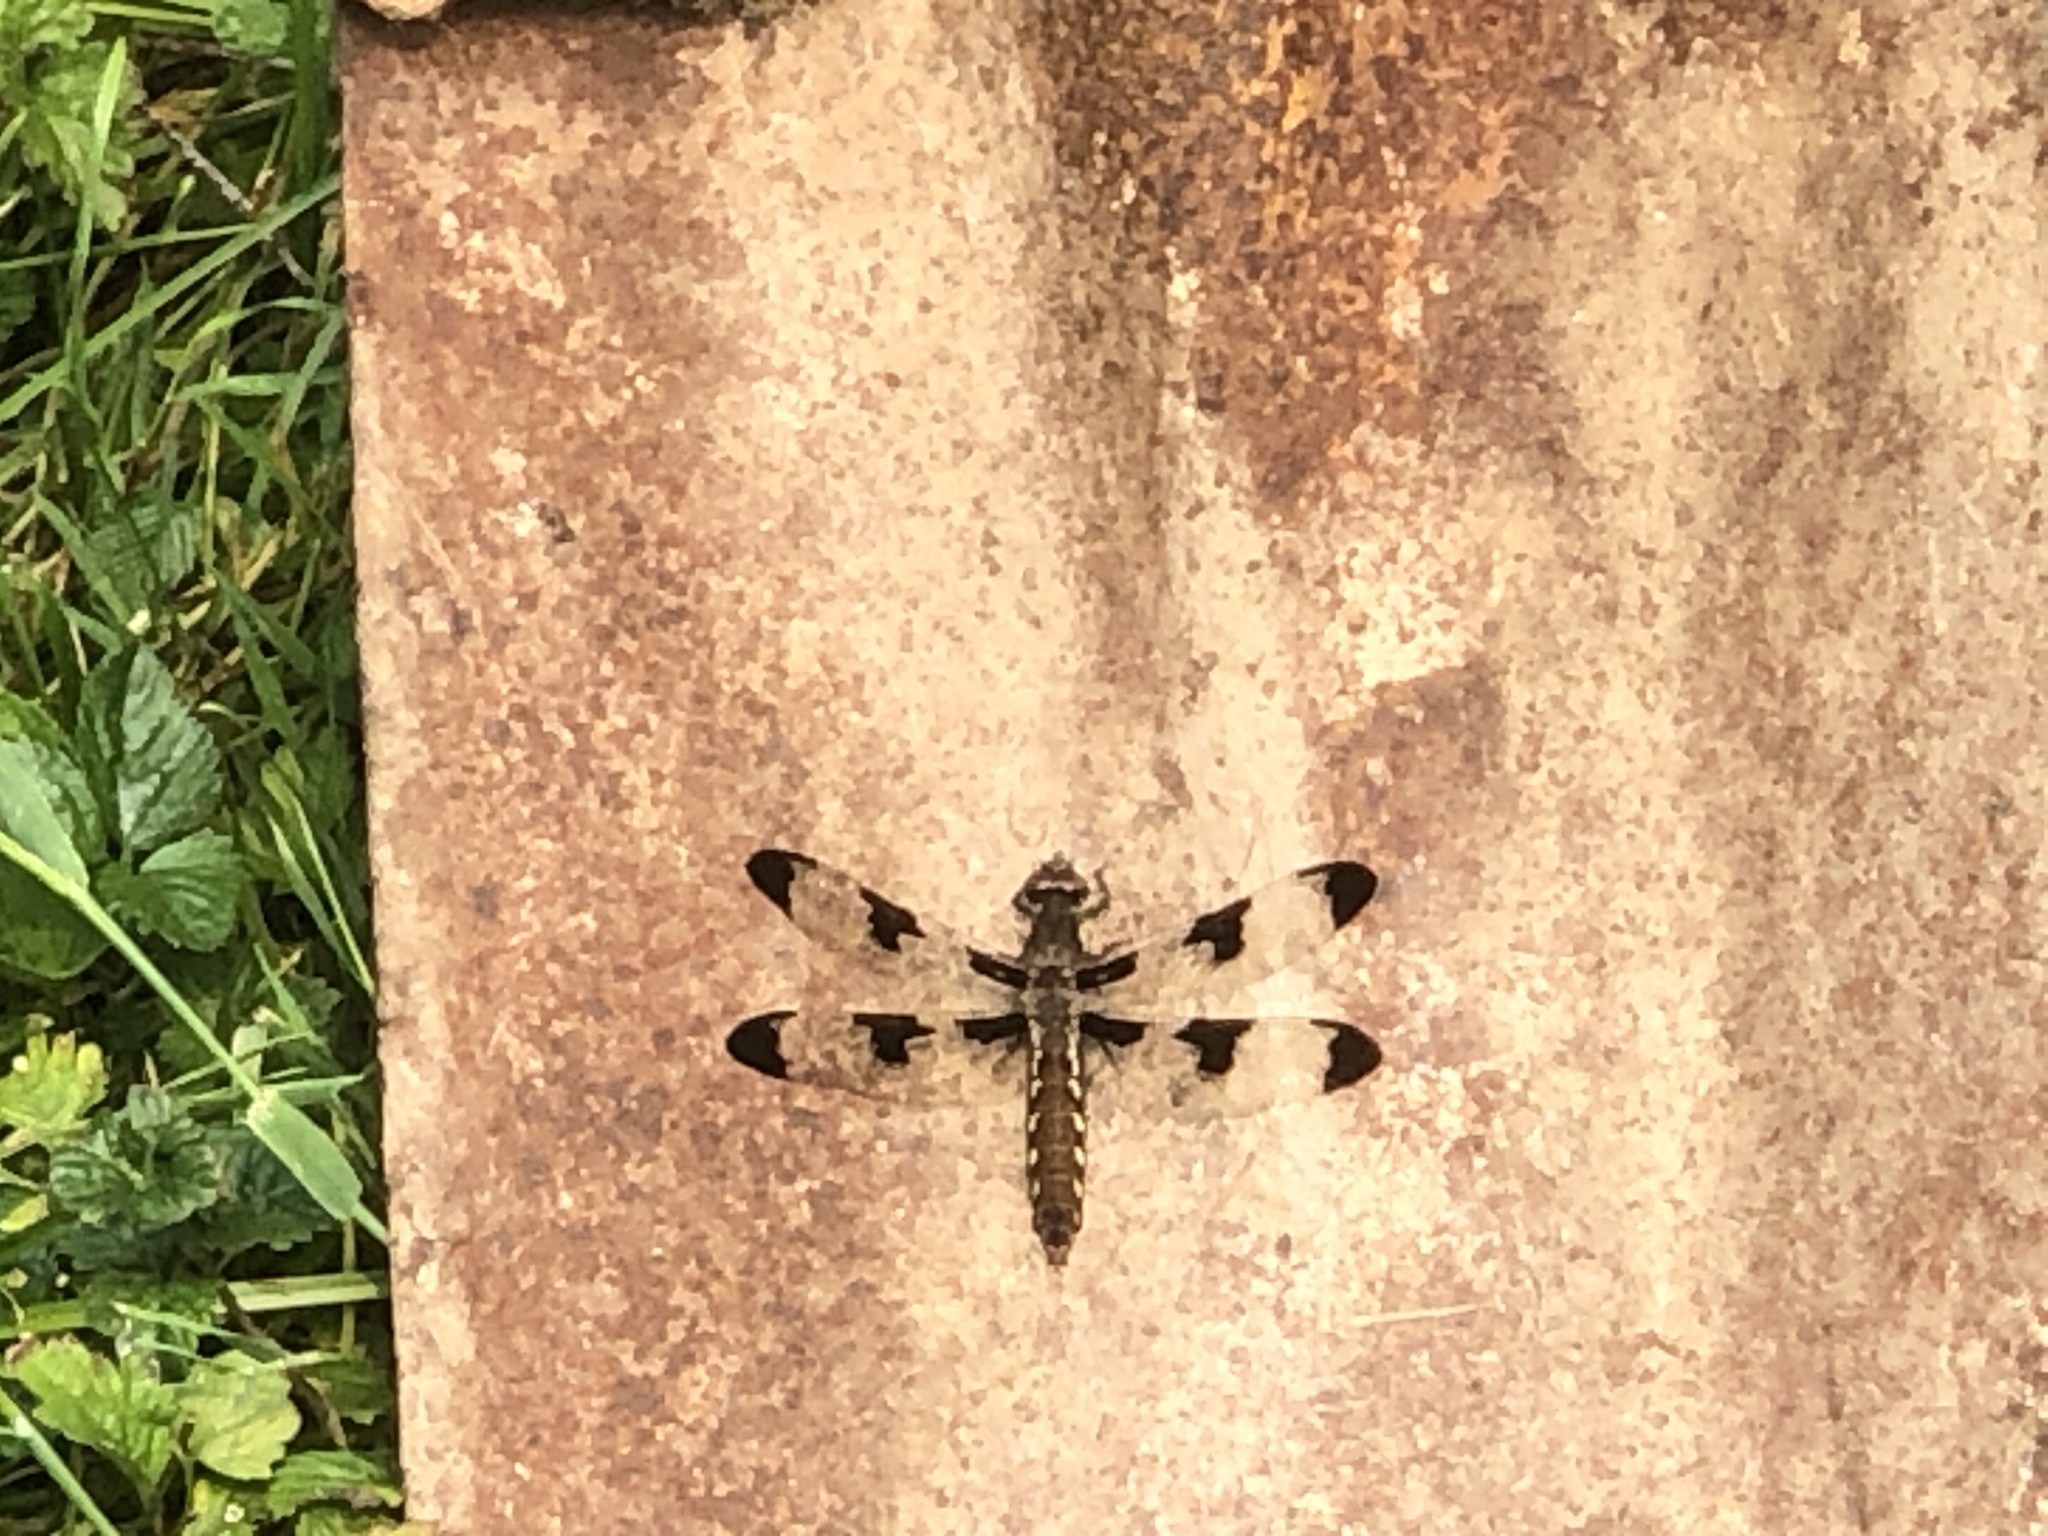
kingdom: Animalia
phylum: Arthropoda
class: Insecta
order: Odonata
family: Libellulidae
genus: Plathemis
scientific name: Plathemis lydia
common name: Common whitetail
